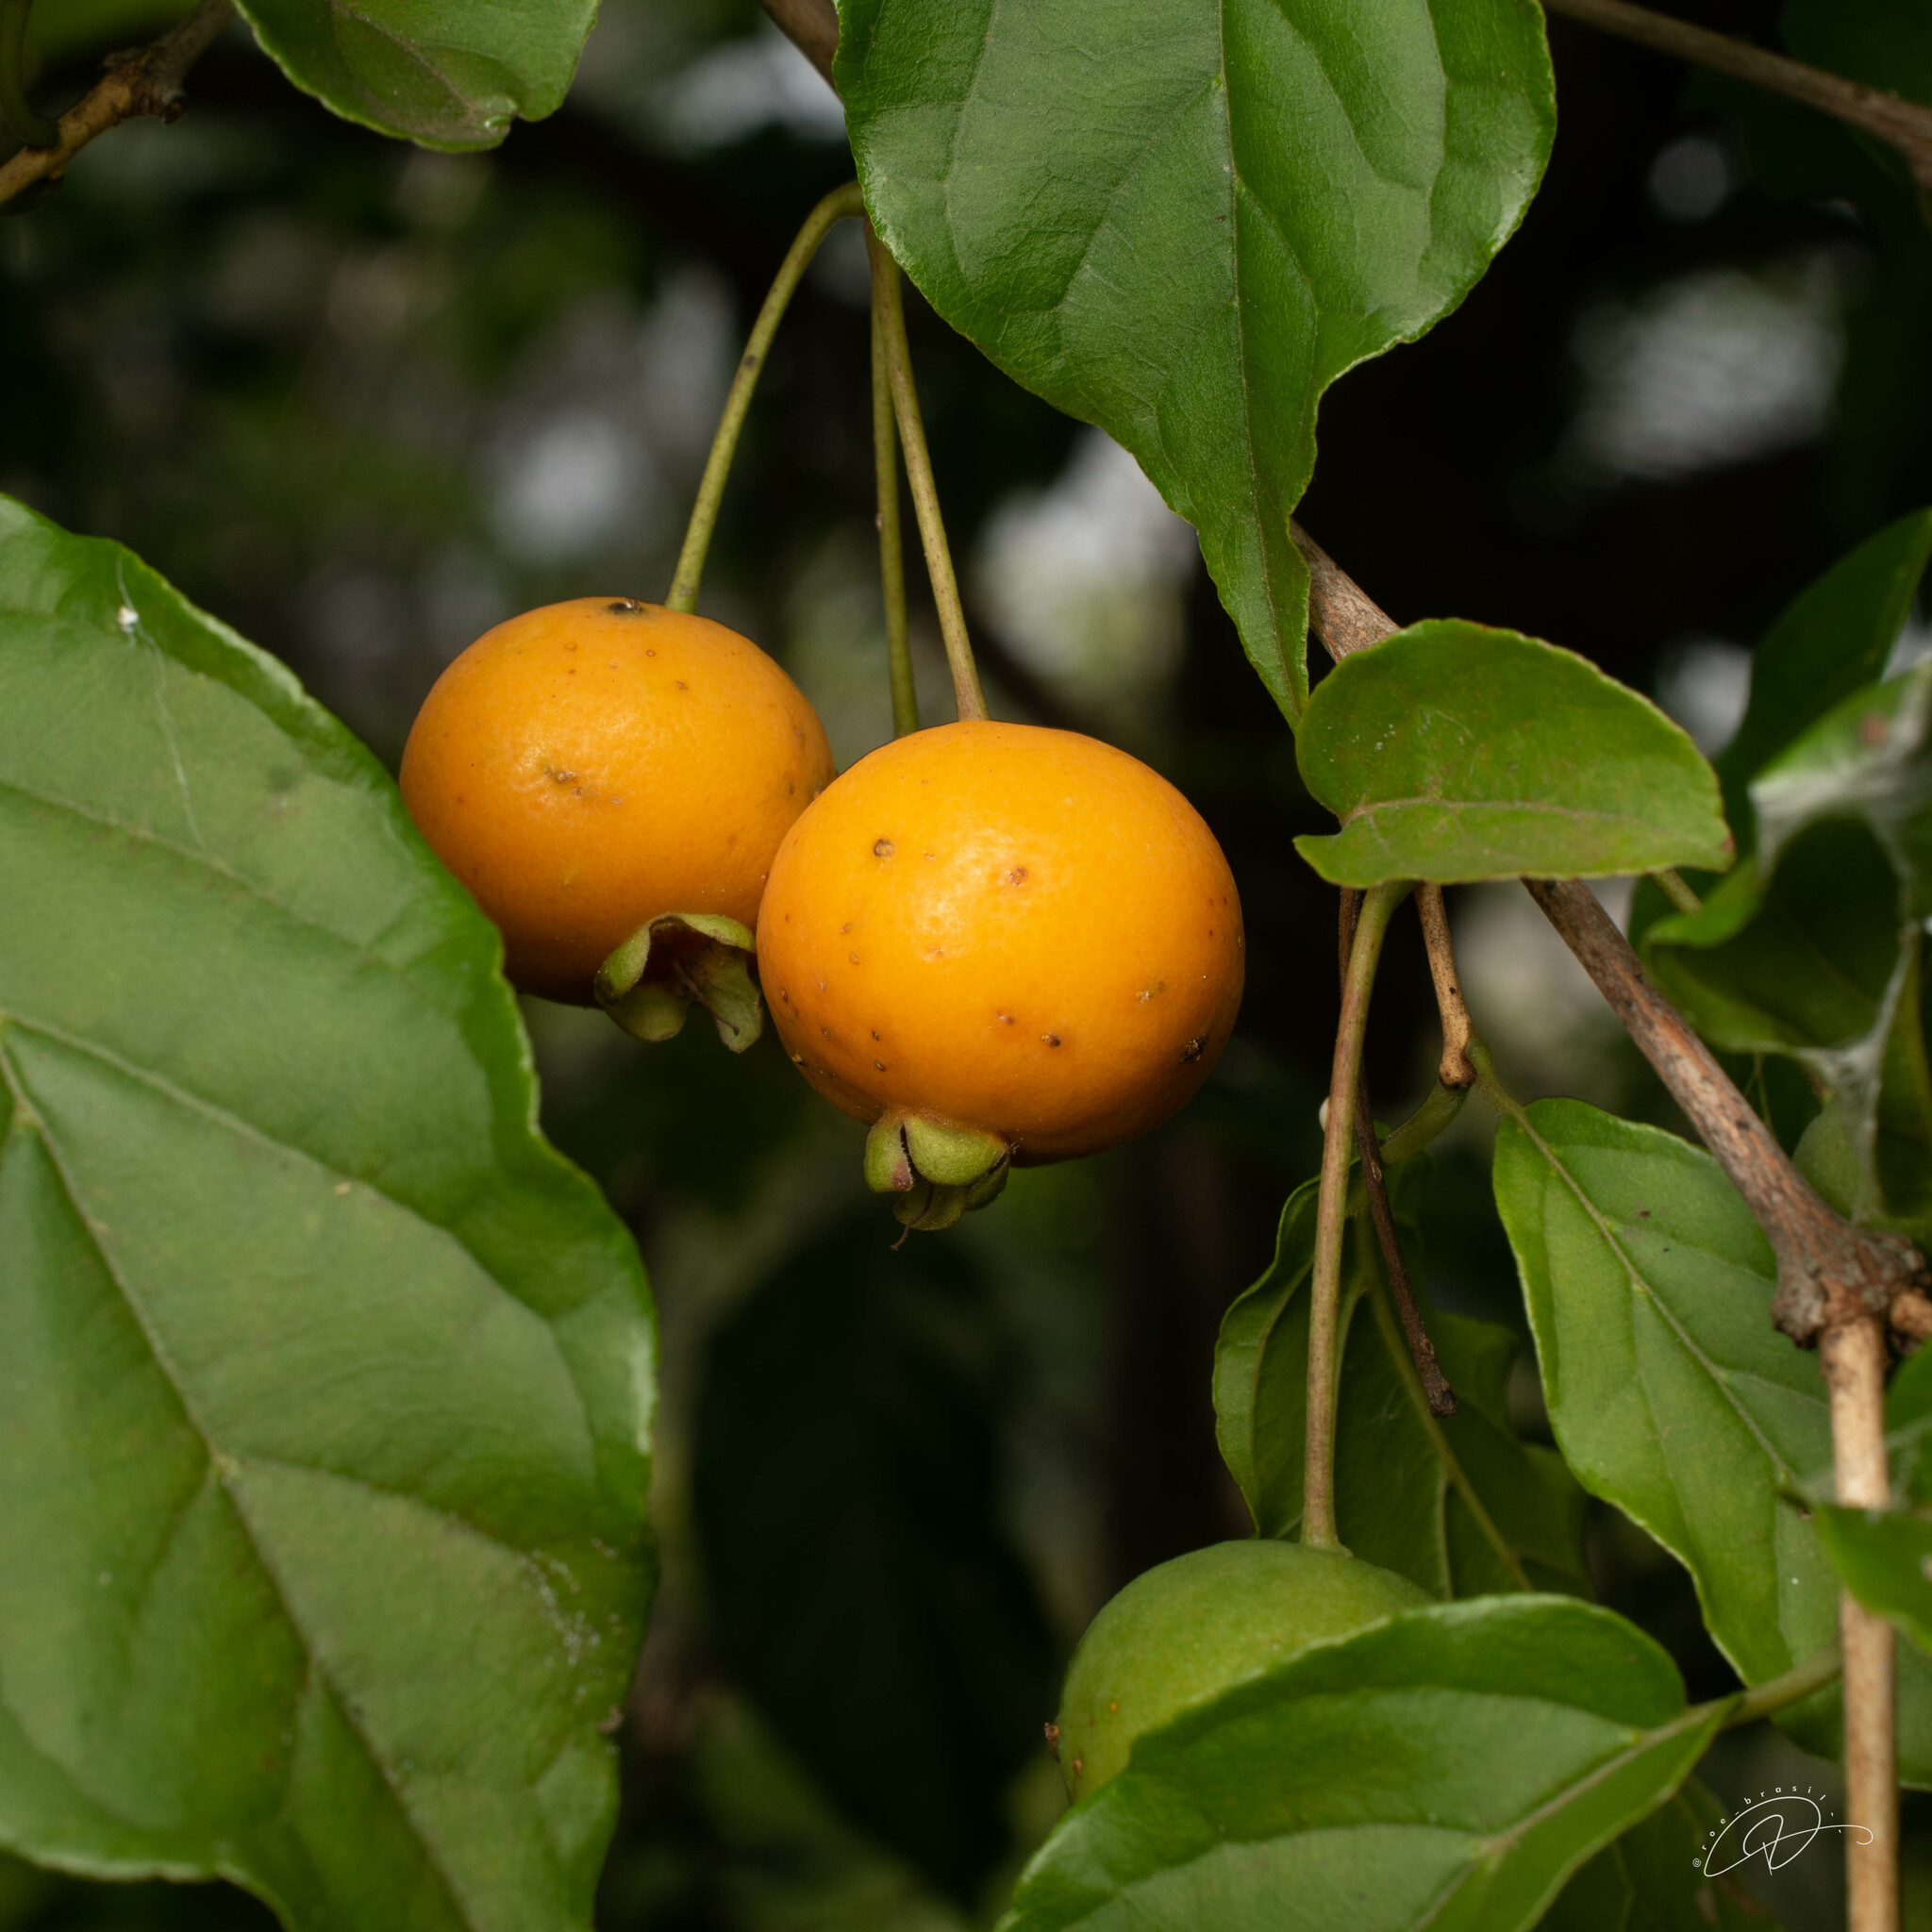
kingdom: Plantae
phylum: Tracheophyta
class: Magnoliopsida
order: Myrtales
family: Myrtaceae
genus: Campomanesia
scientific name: Campomanesia xanthocarpa
